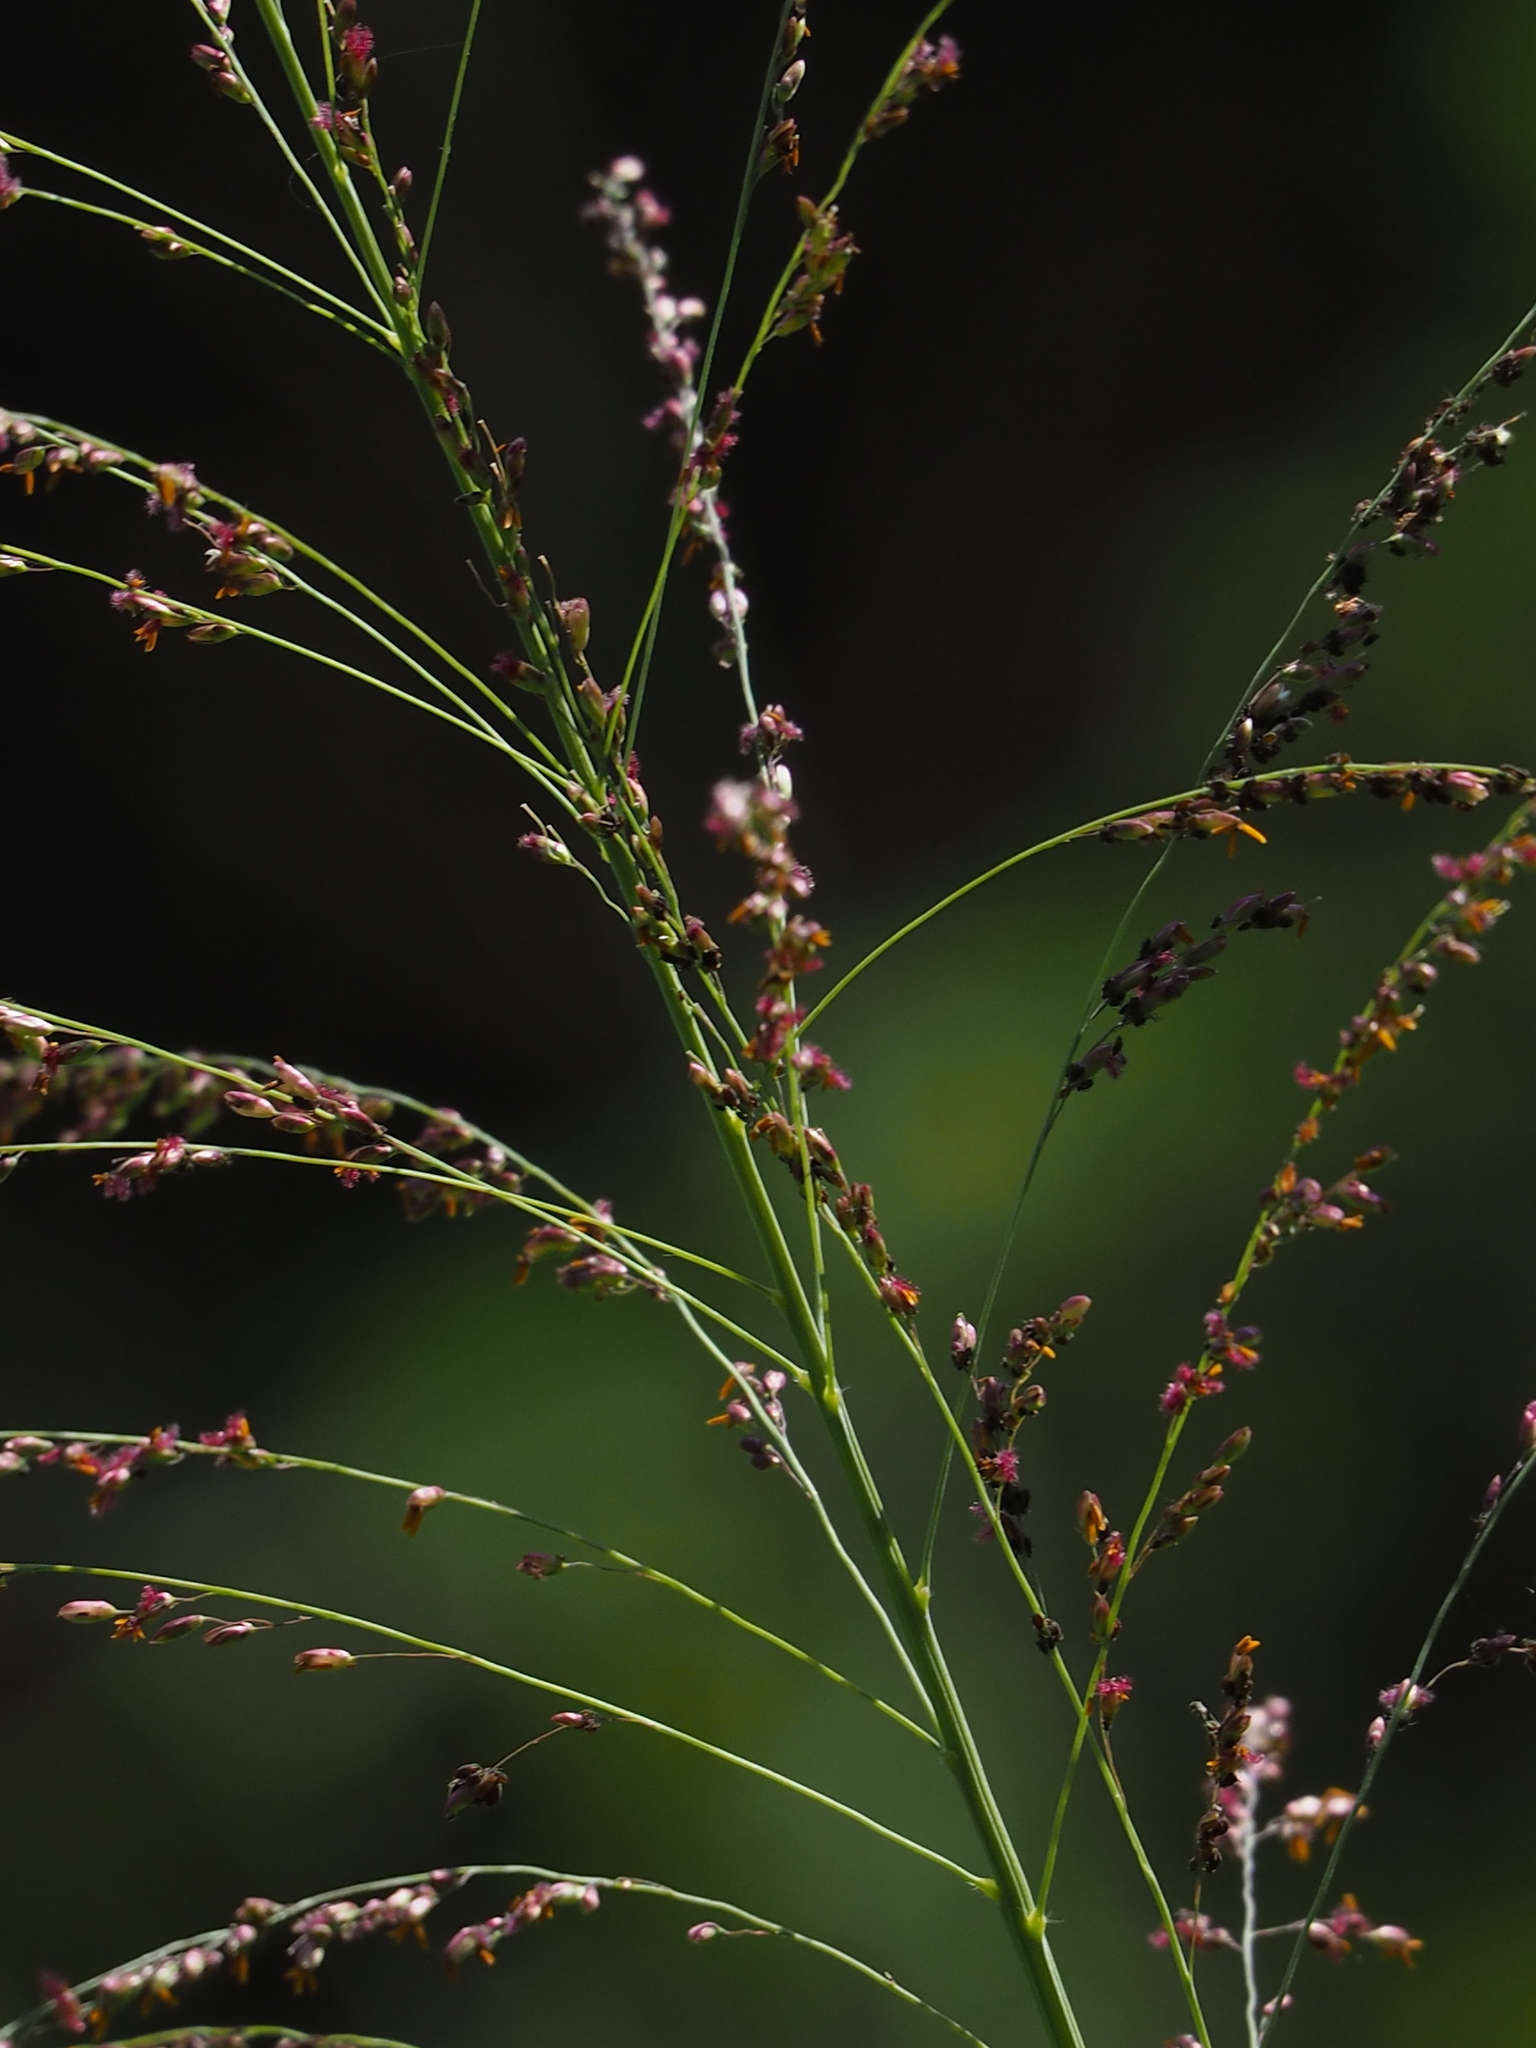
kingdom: Plantae
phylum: Tracheophyta
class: Liliopsida
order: Poales
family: Poaceae
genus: Megathyrsus
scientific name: Megathyrsus maximus
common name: Guineagrass
